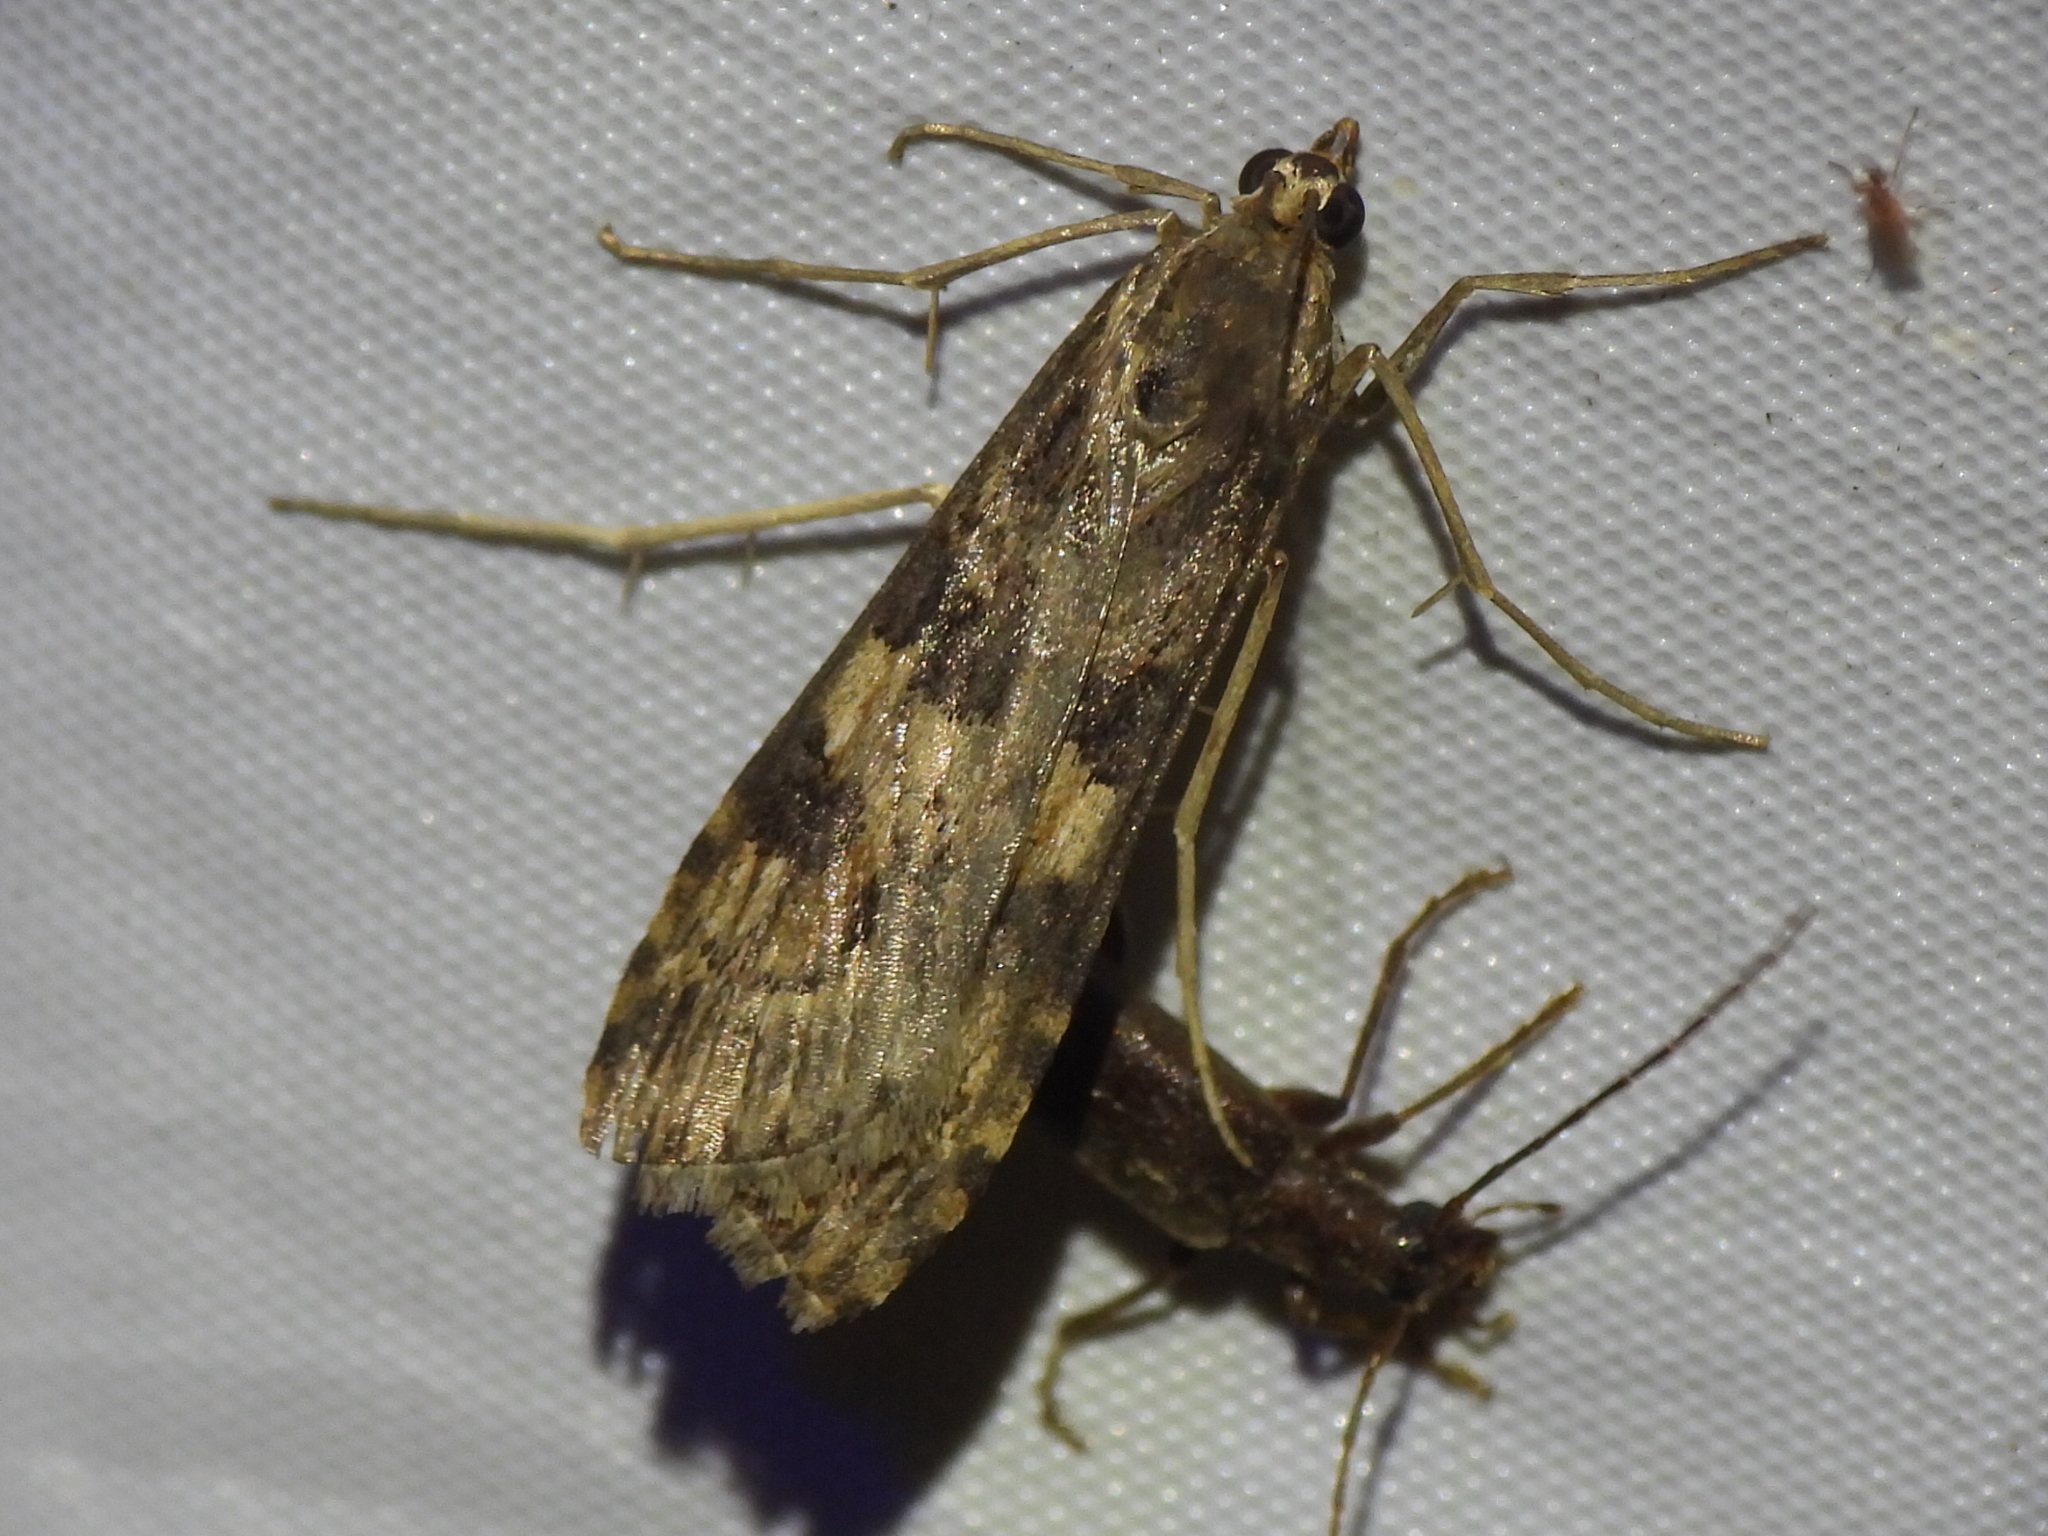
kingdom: Animalia
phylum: Arthropoda
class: Insecta
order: Lepidoptera
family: Crambidae
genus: Nomophila
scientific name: Nomophila nearctica
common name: American rush veneer
